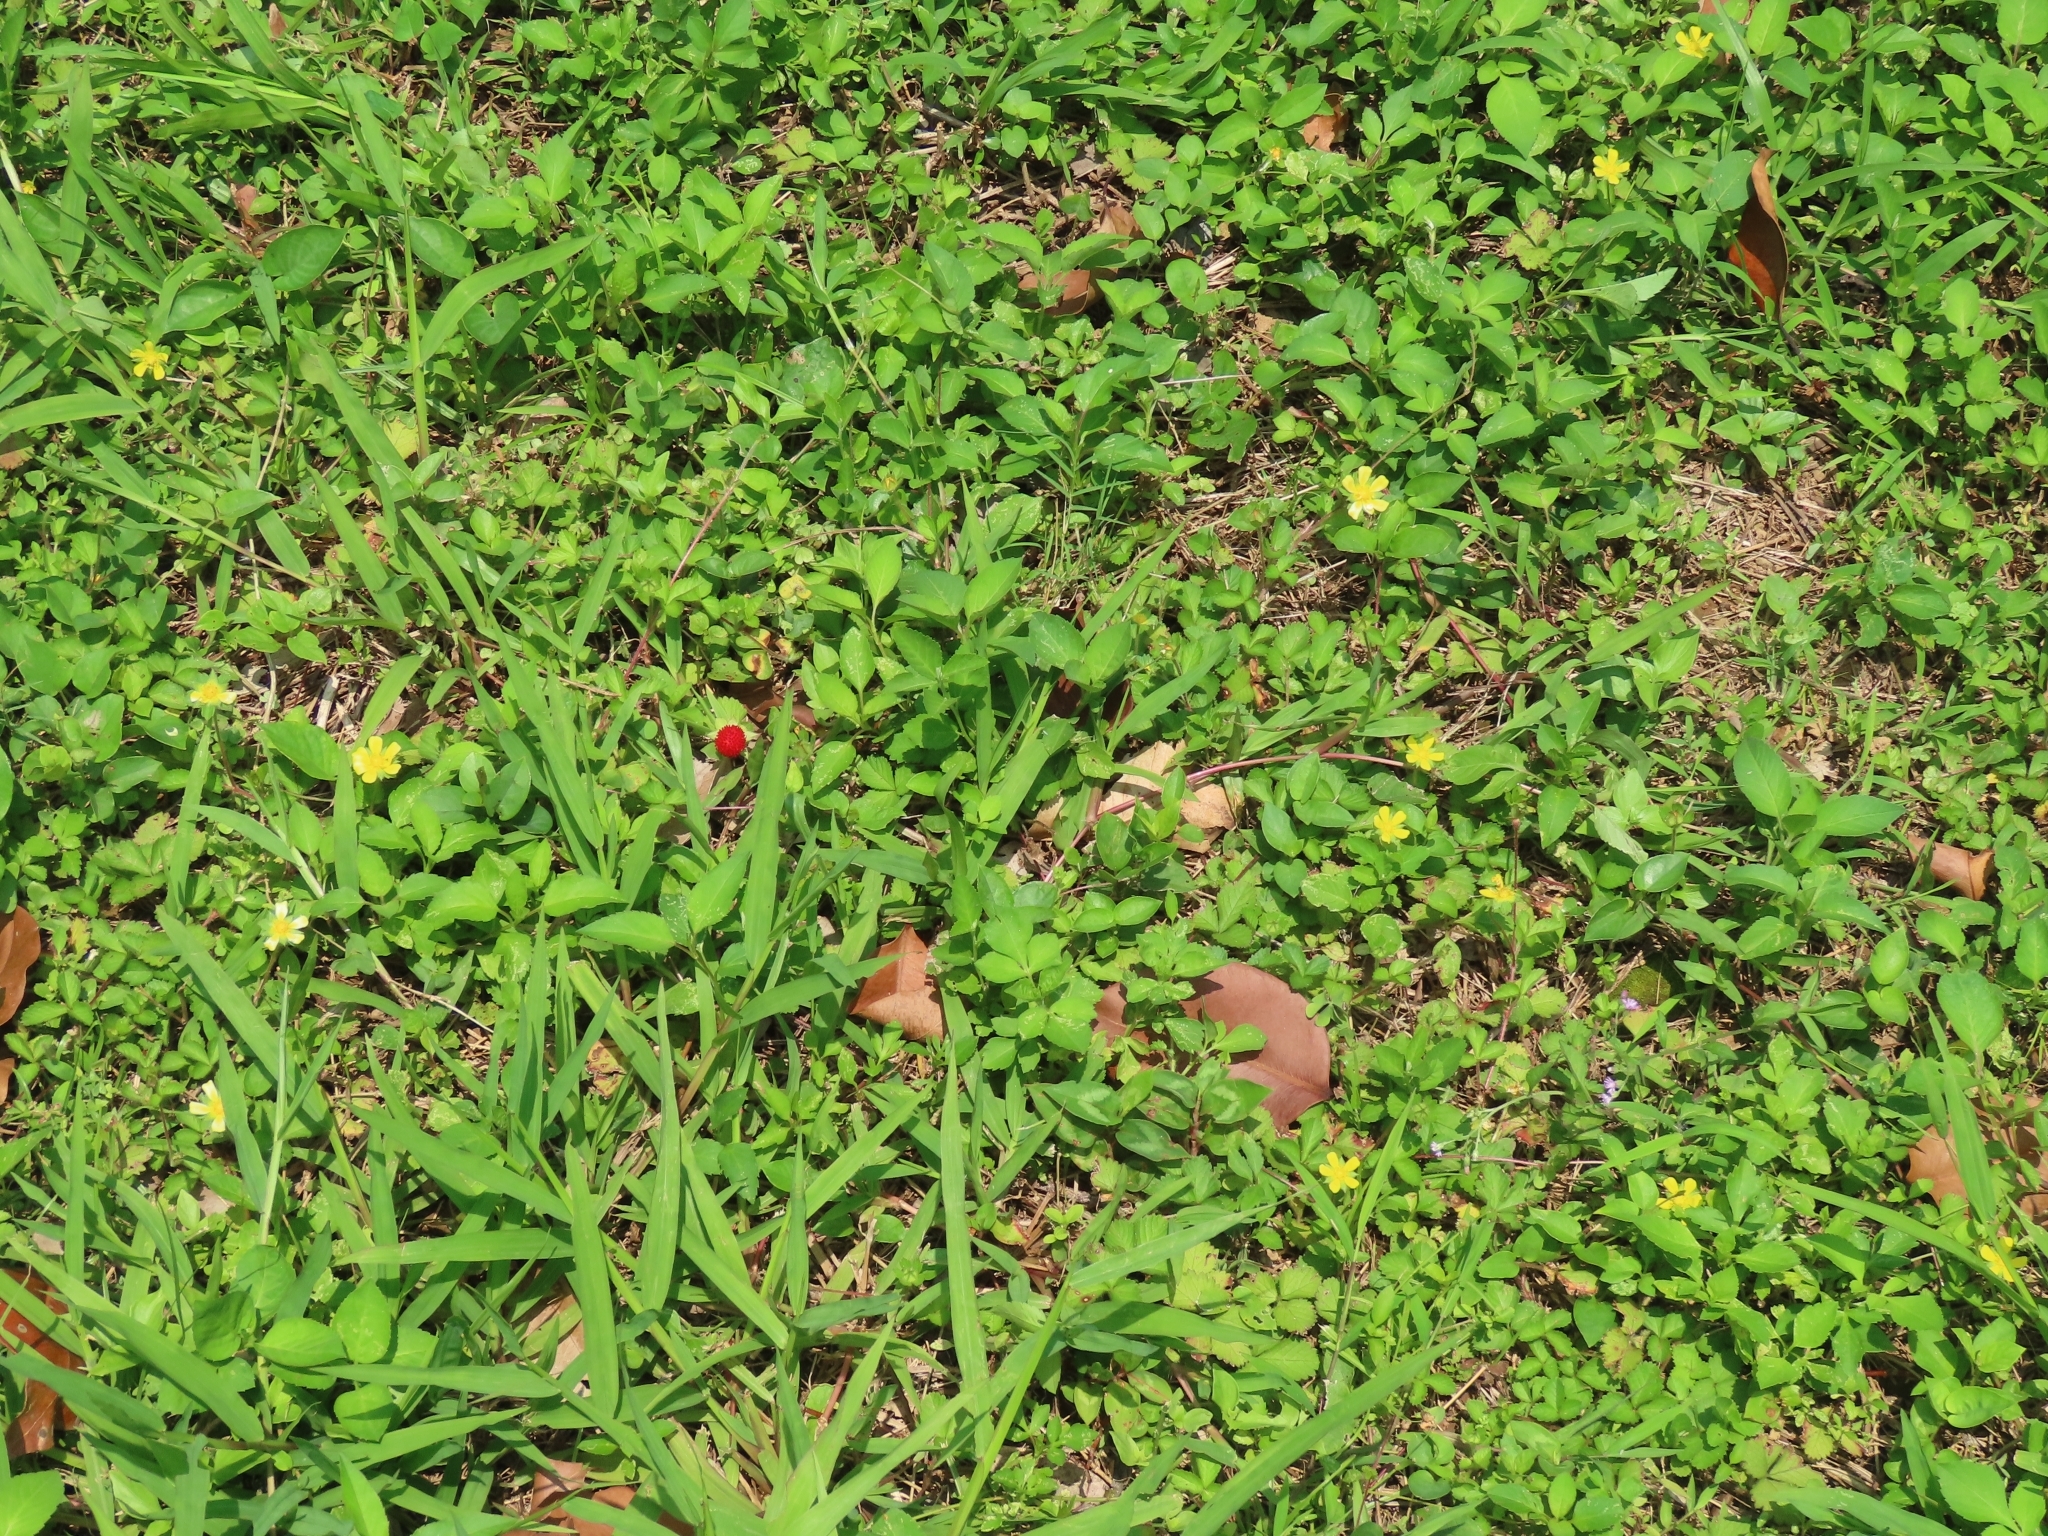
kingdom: Plantae
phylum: Tracheophyta
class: Magnoliopsida
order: Rosales
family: Rosaceae
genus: Potentilla
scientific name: Potentilla indica
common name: Yellow-flowered strawberry
